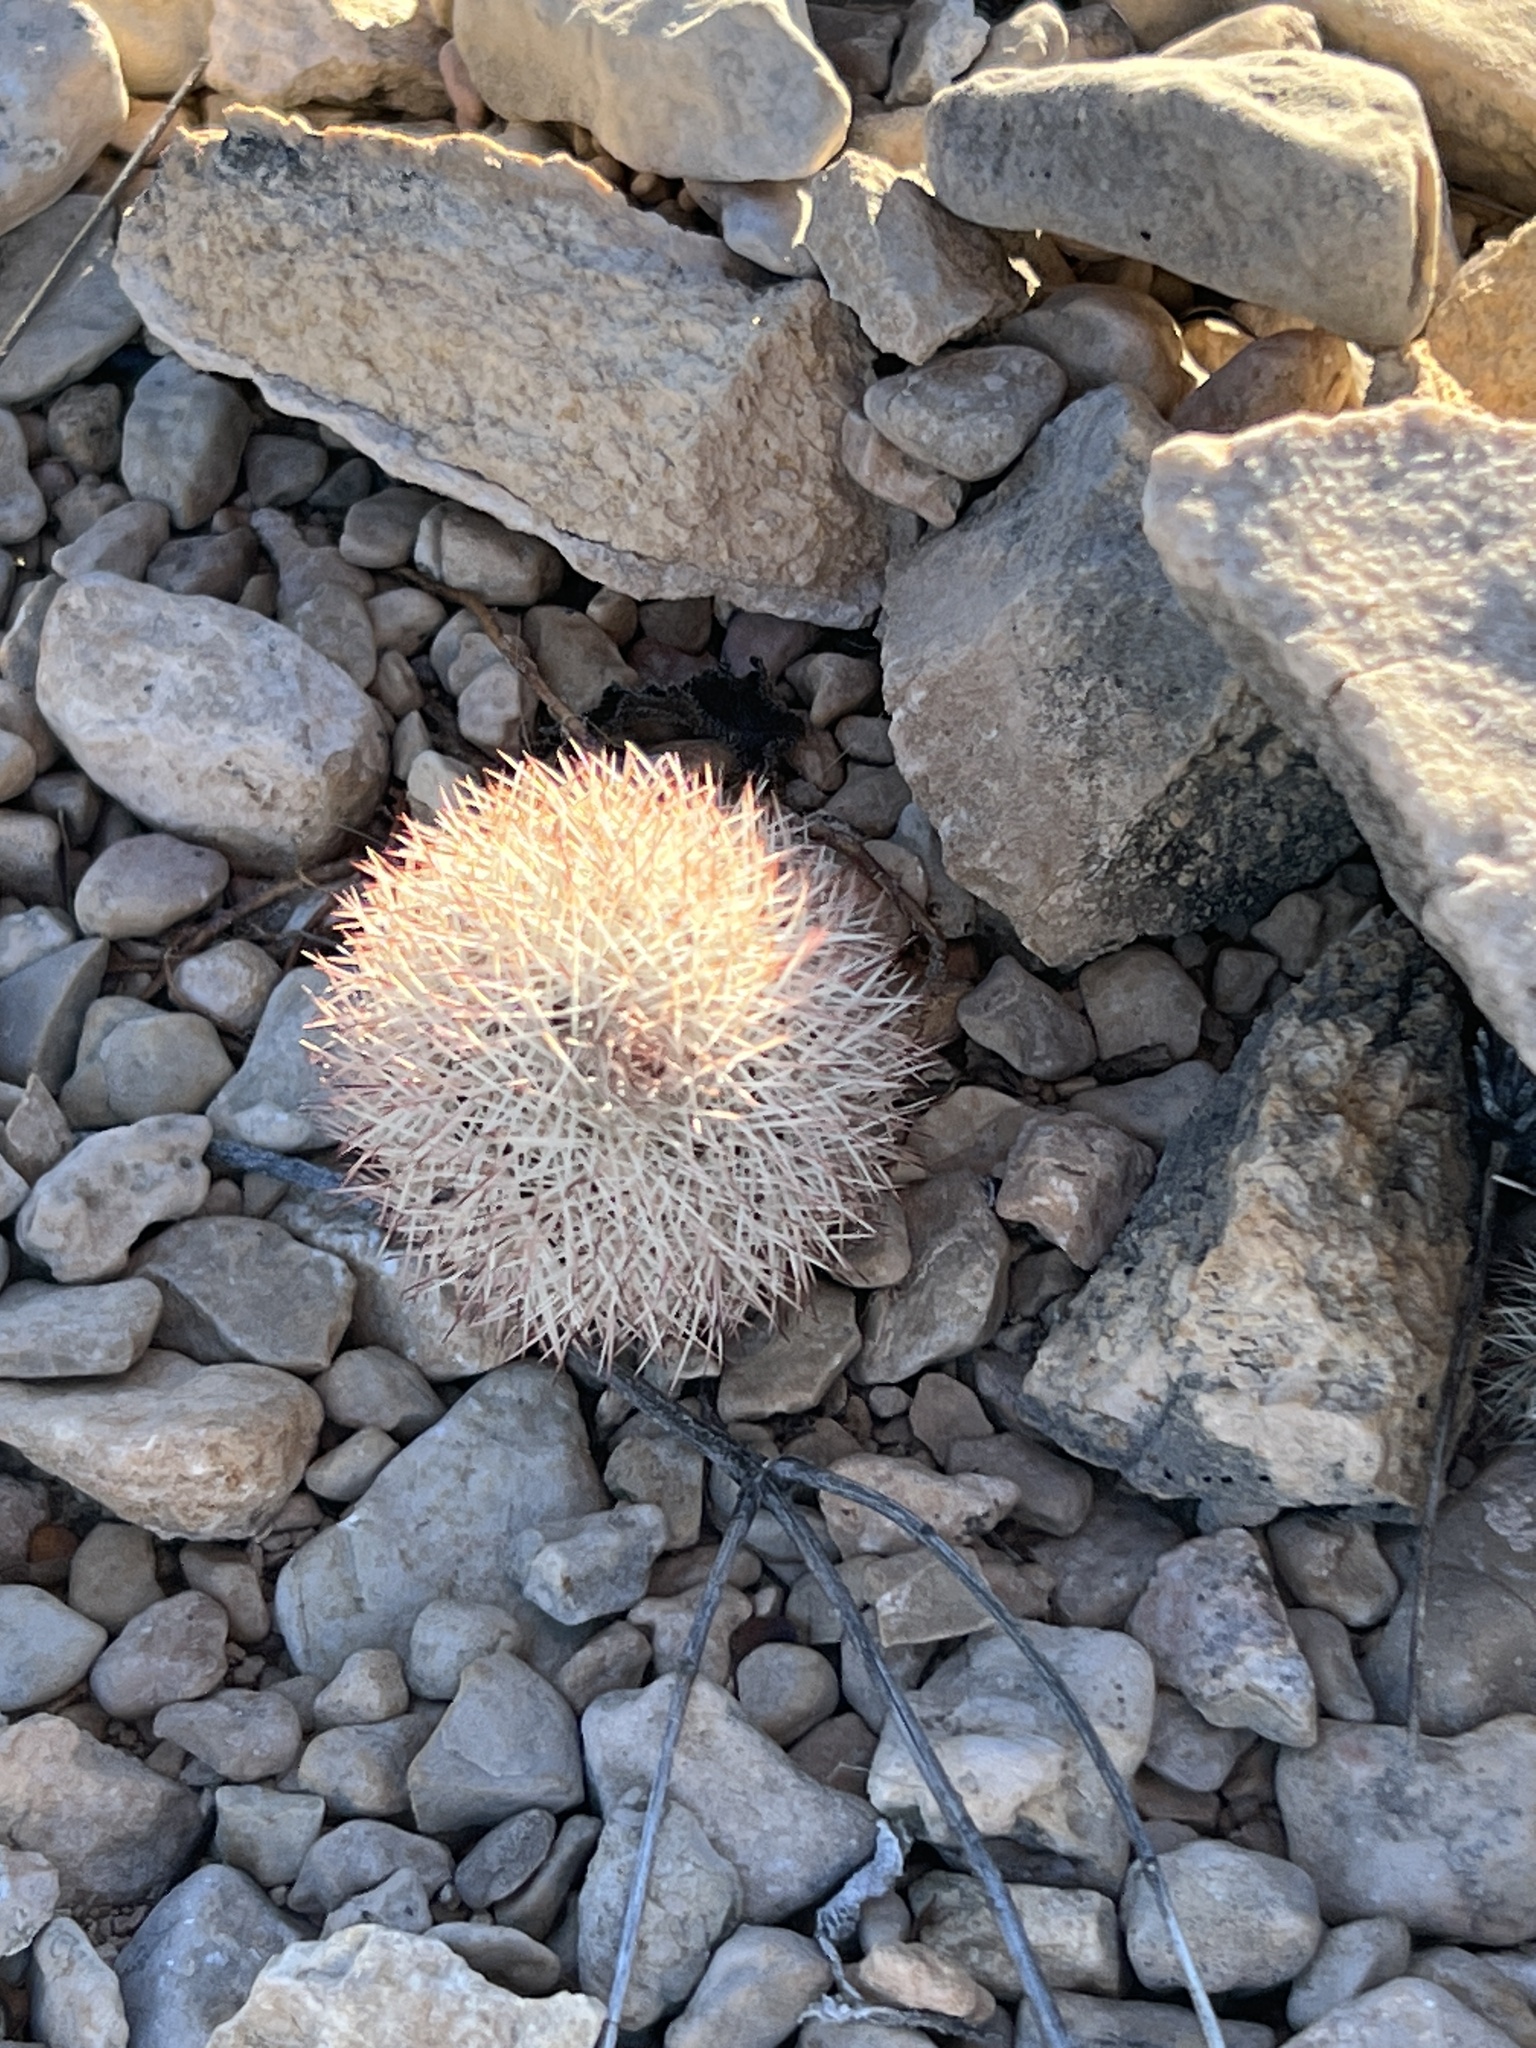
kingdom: Plantae
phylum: Tracheophyta
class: Magnoliopsida
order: Caryophyllales
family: Cactaceae
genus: Echinocereus
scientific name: Echinocereus dasyacanthus
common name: Spiny hedgehog cactus
